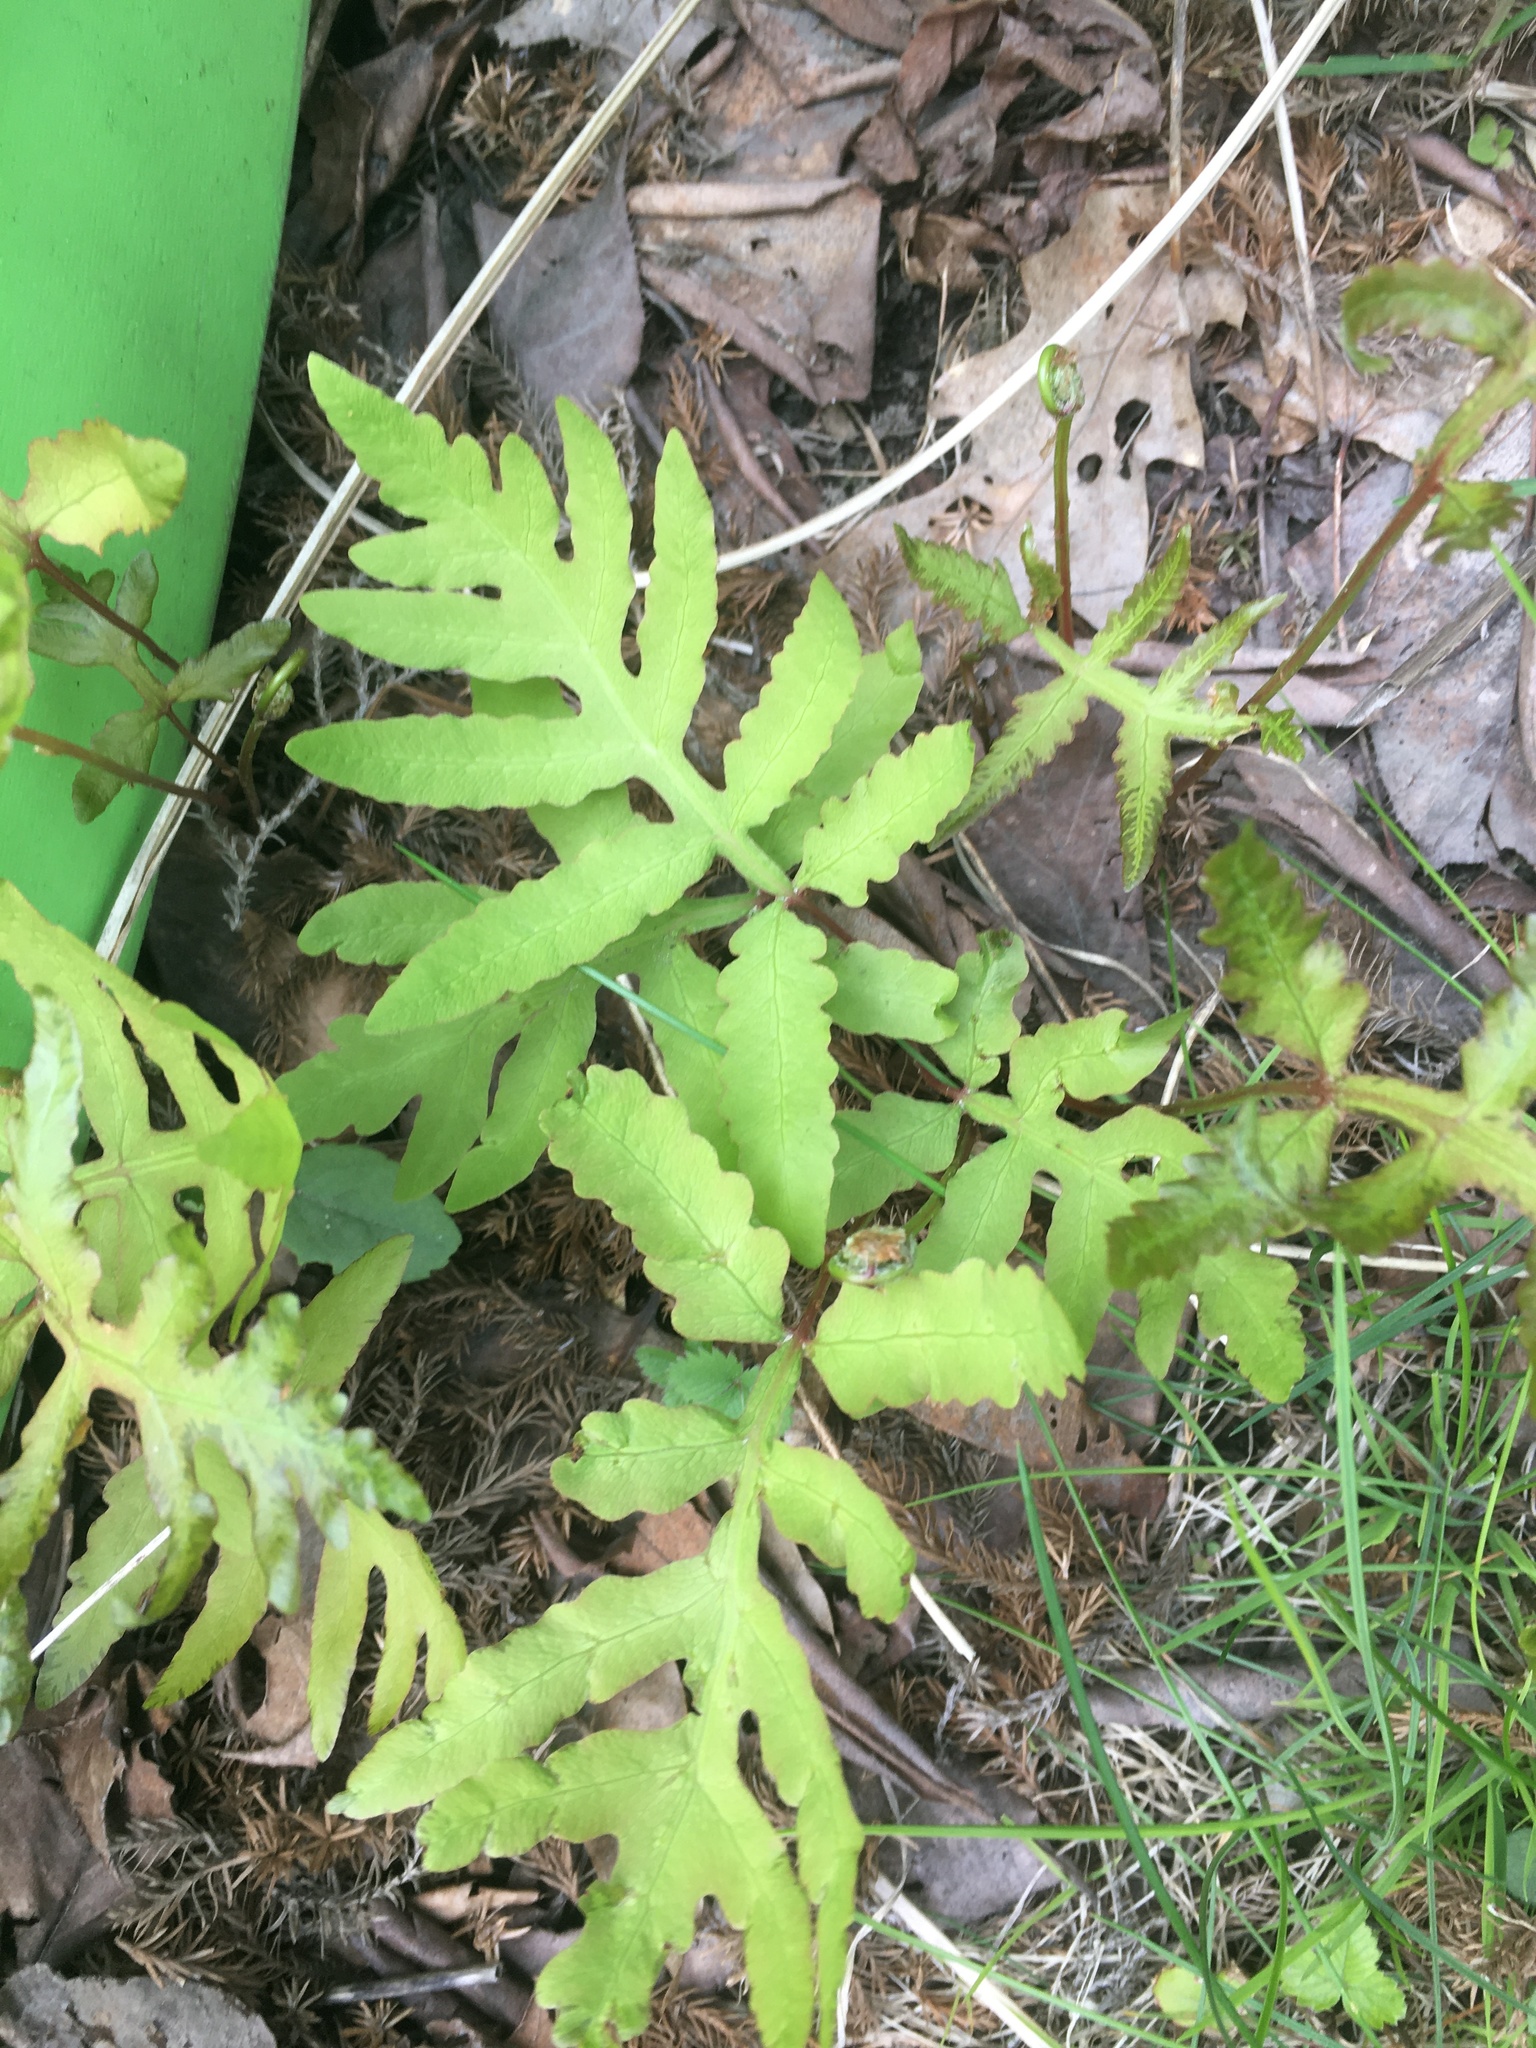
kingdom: Plantae
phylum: Tracheophyta
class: Polypodiopsida
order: Polypodiales
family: Onocleaceae
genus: Onoclea
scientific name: Onoclea sensibilis
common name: Sensitive fern
